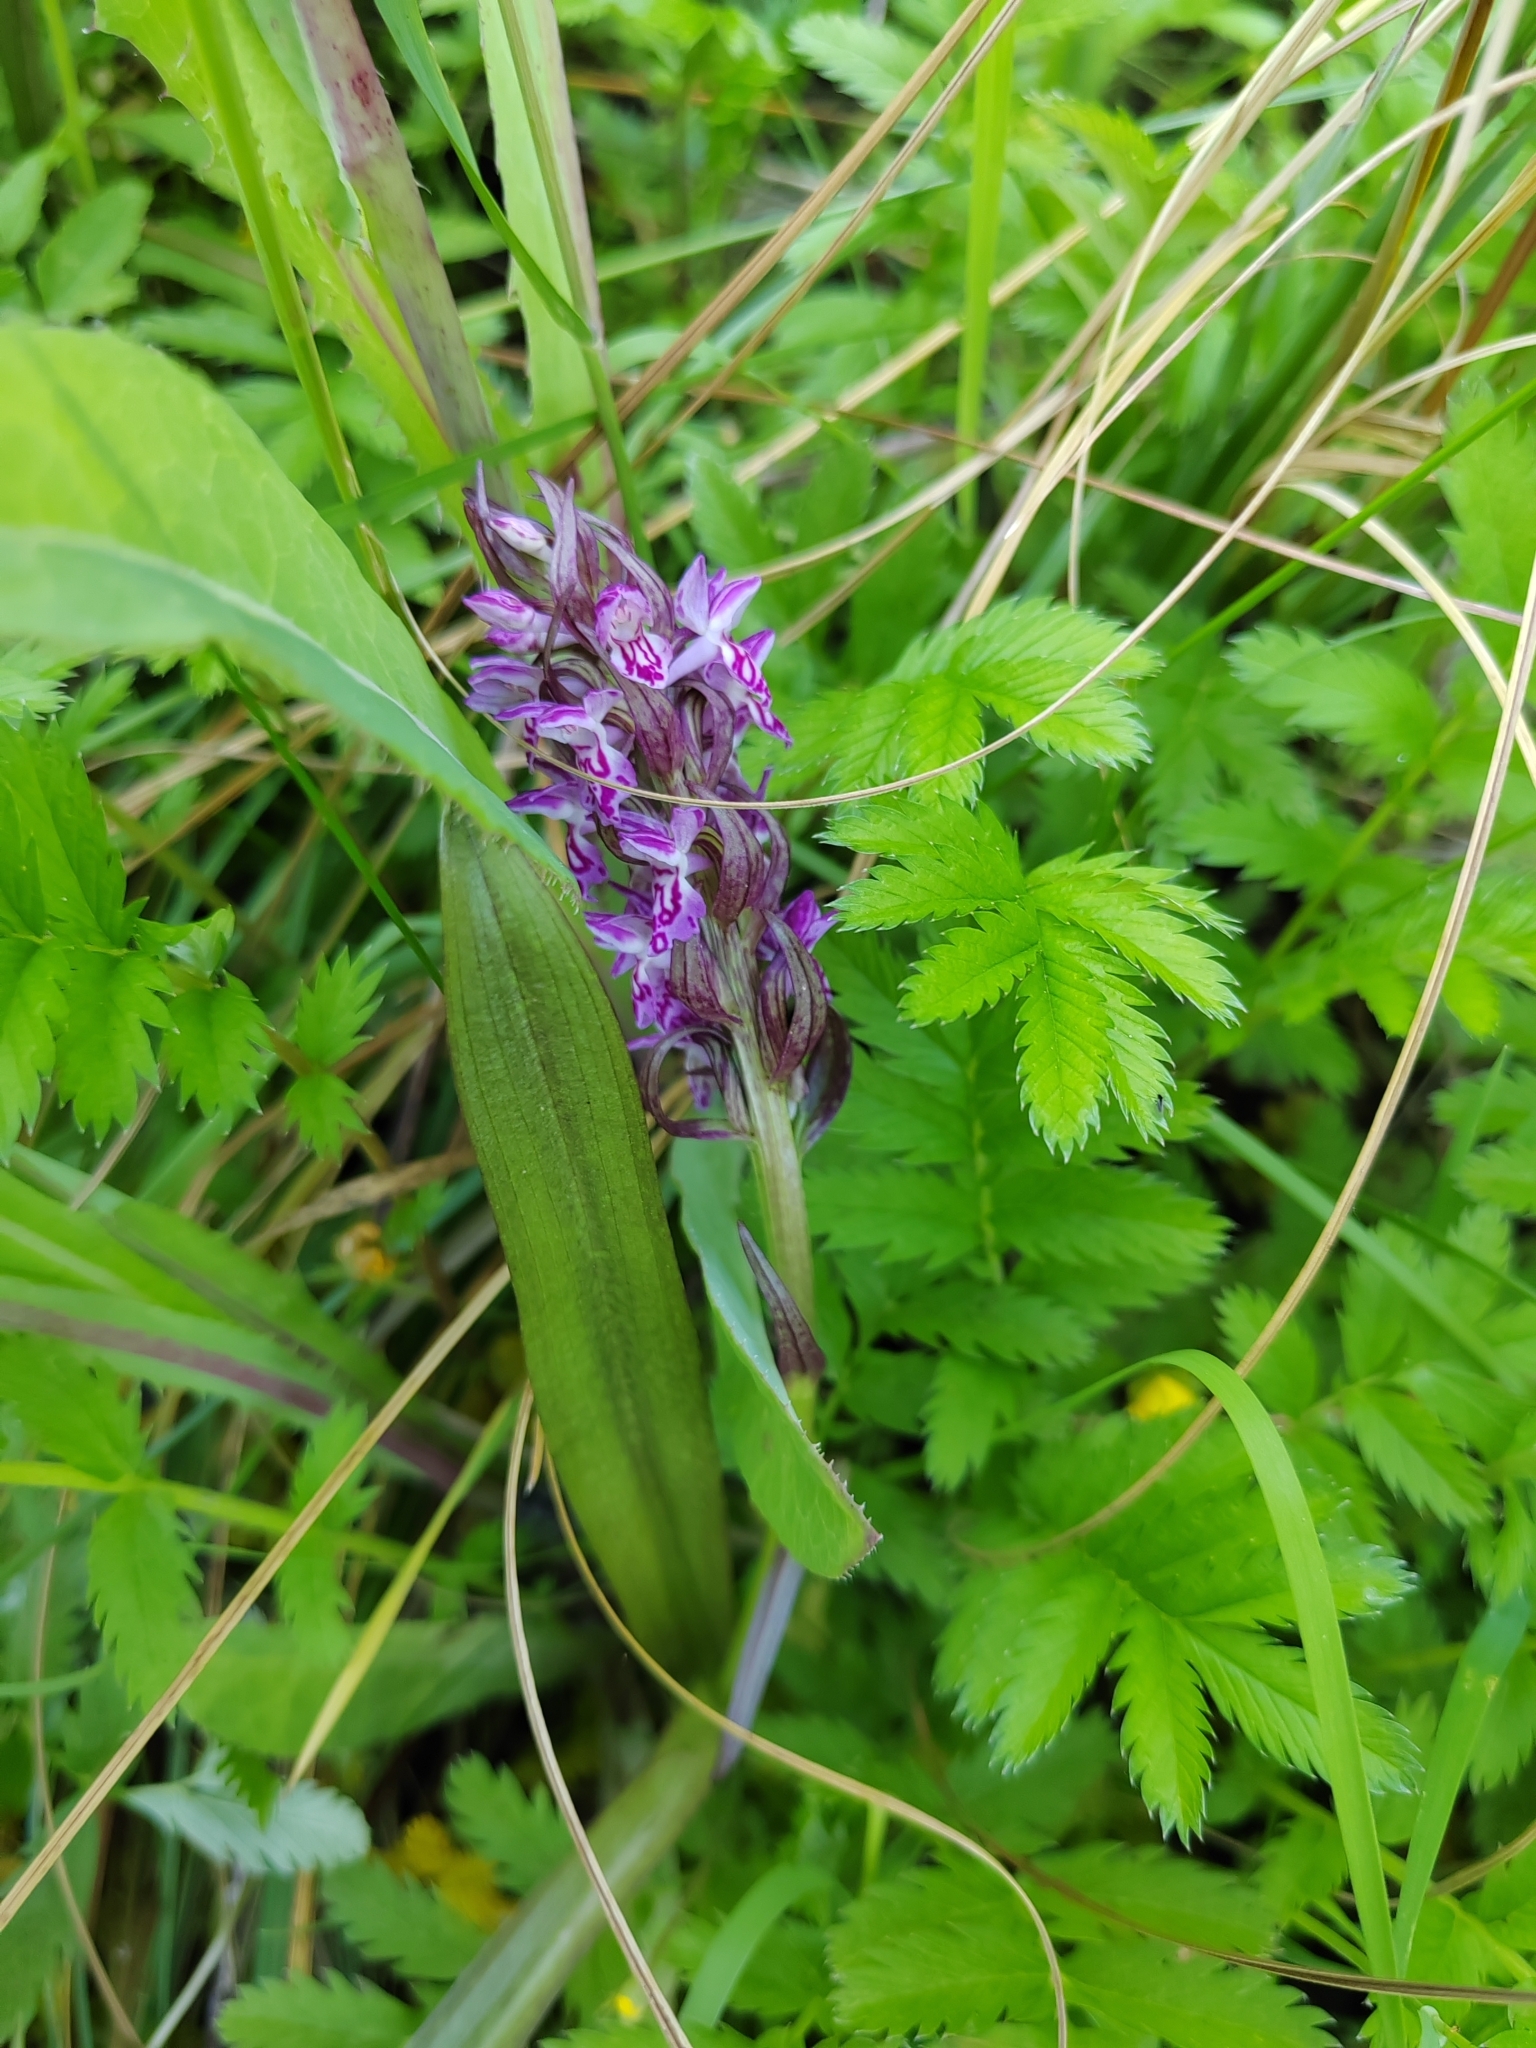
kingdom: Plantae
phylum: Tracheophyta
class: Liliopsida
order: Asparagales
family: Orchidaceae
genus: Dactylorhiza
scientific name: Dactylorhiza incarnata
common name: Early marsh-orchid
